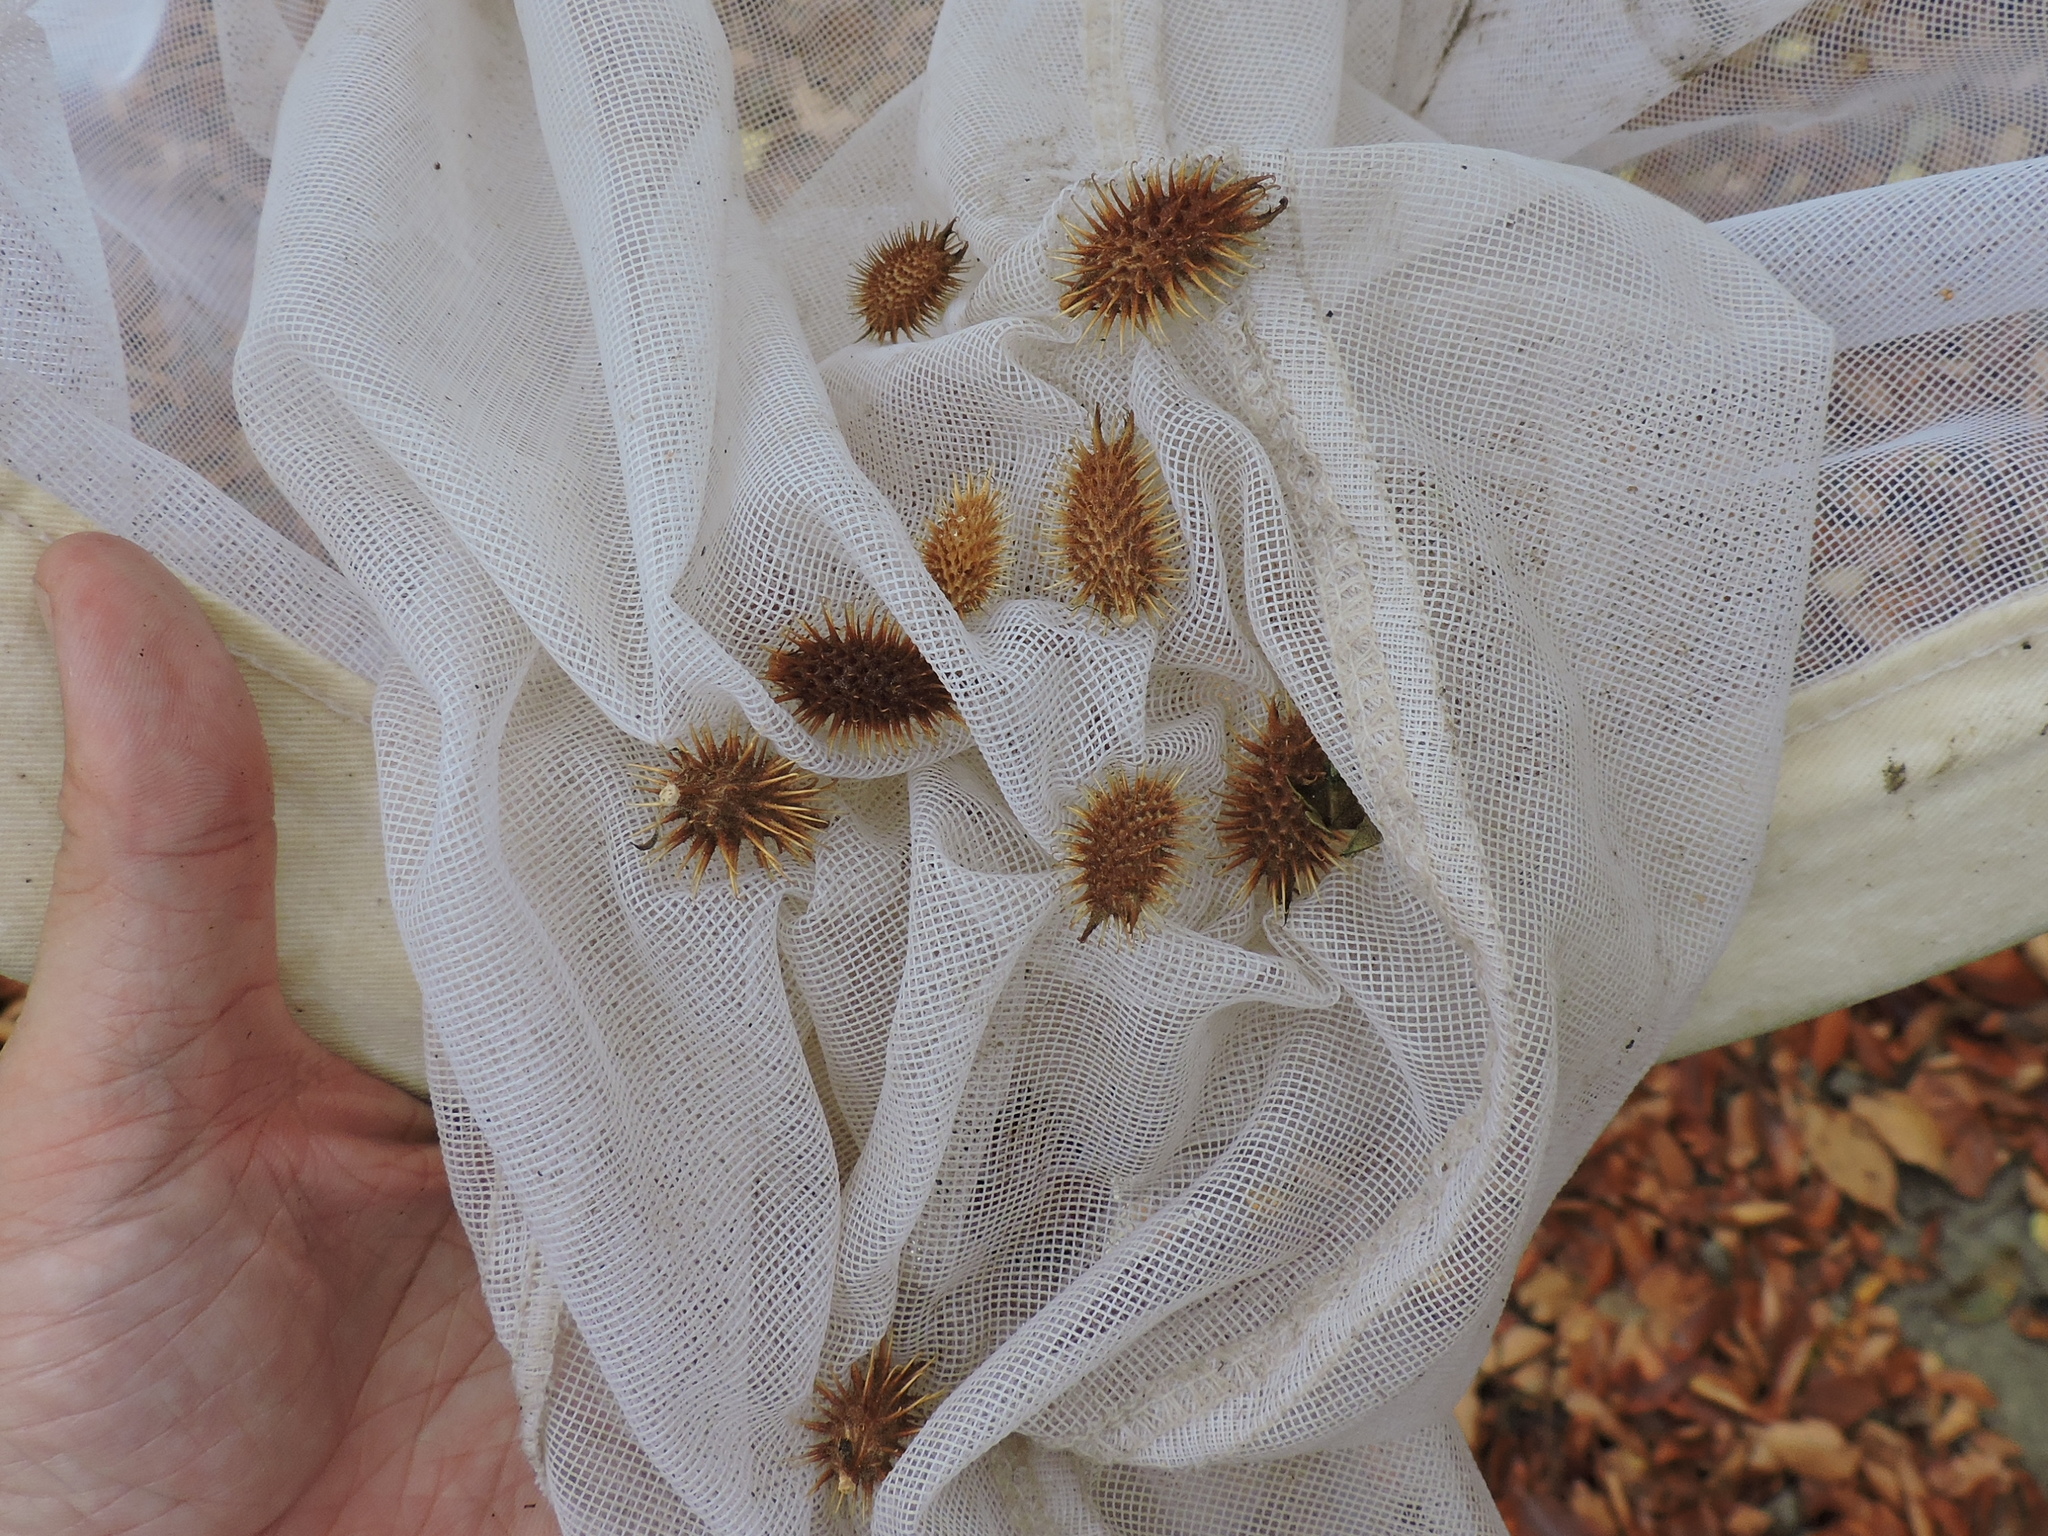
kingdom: Plantae
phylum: Tracheophyta
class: Magnoliopsida
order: Asterales
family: Asteraceae
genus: Xanthium
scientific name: Xanthium strumarium
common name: Rough cocklebur
